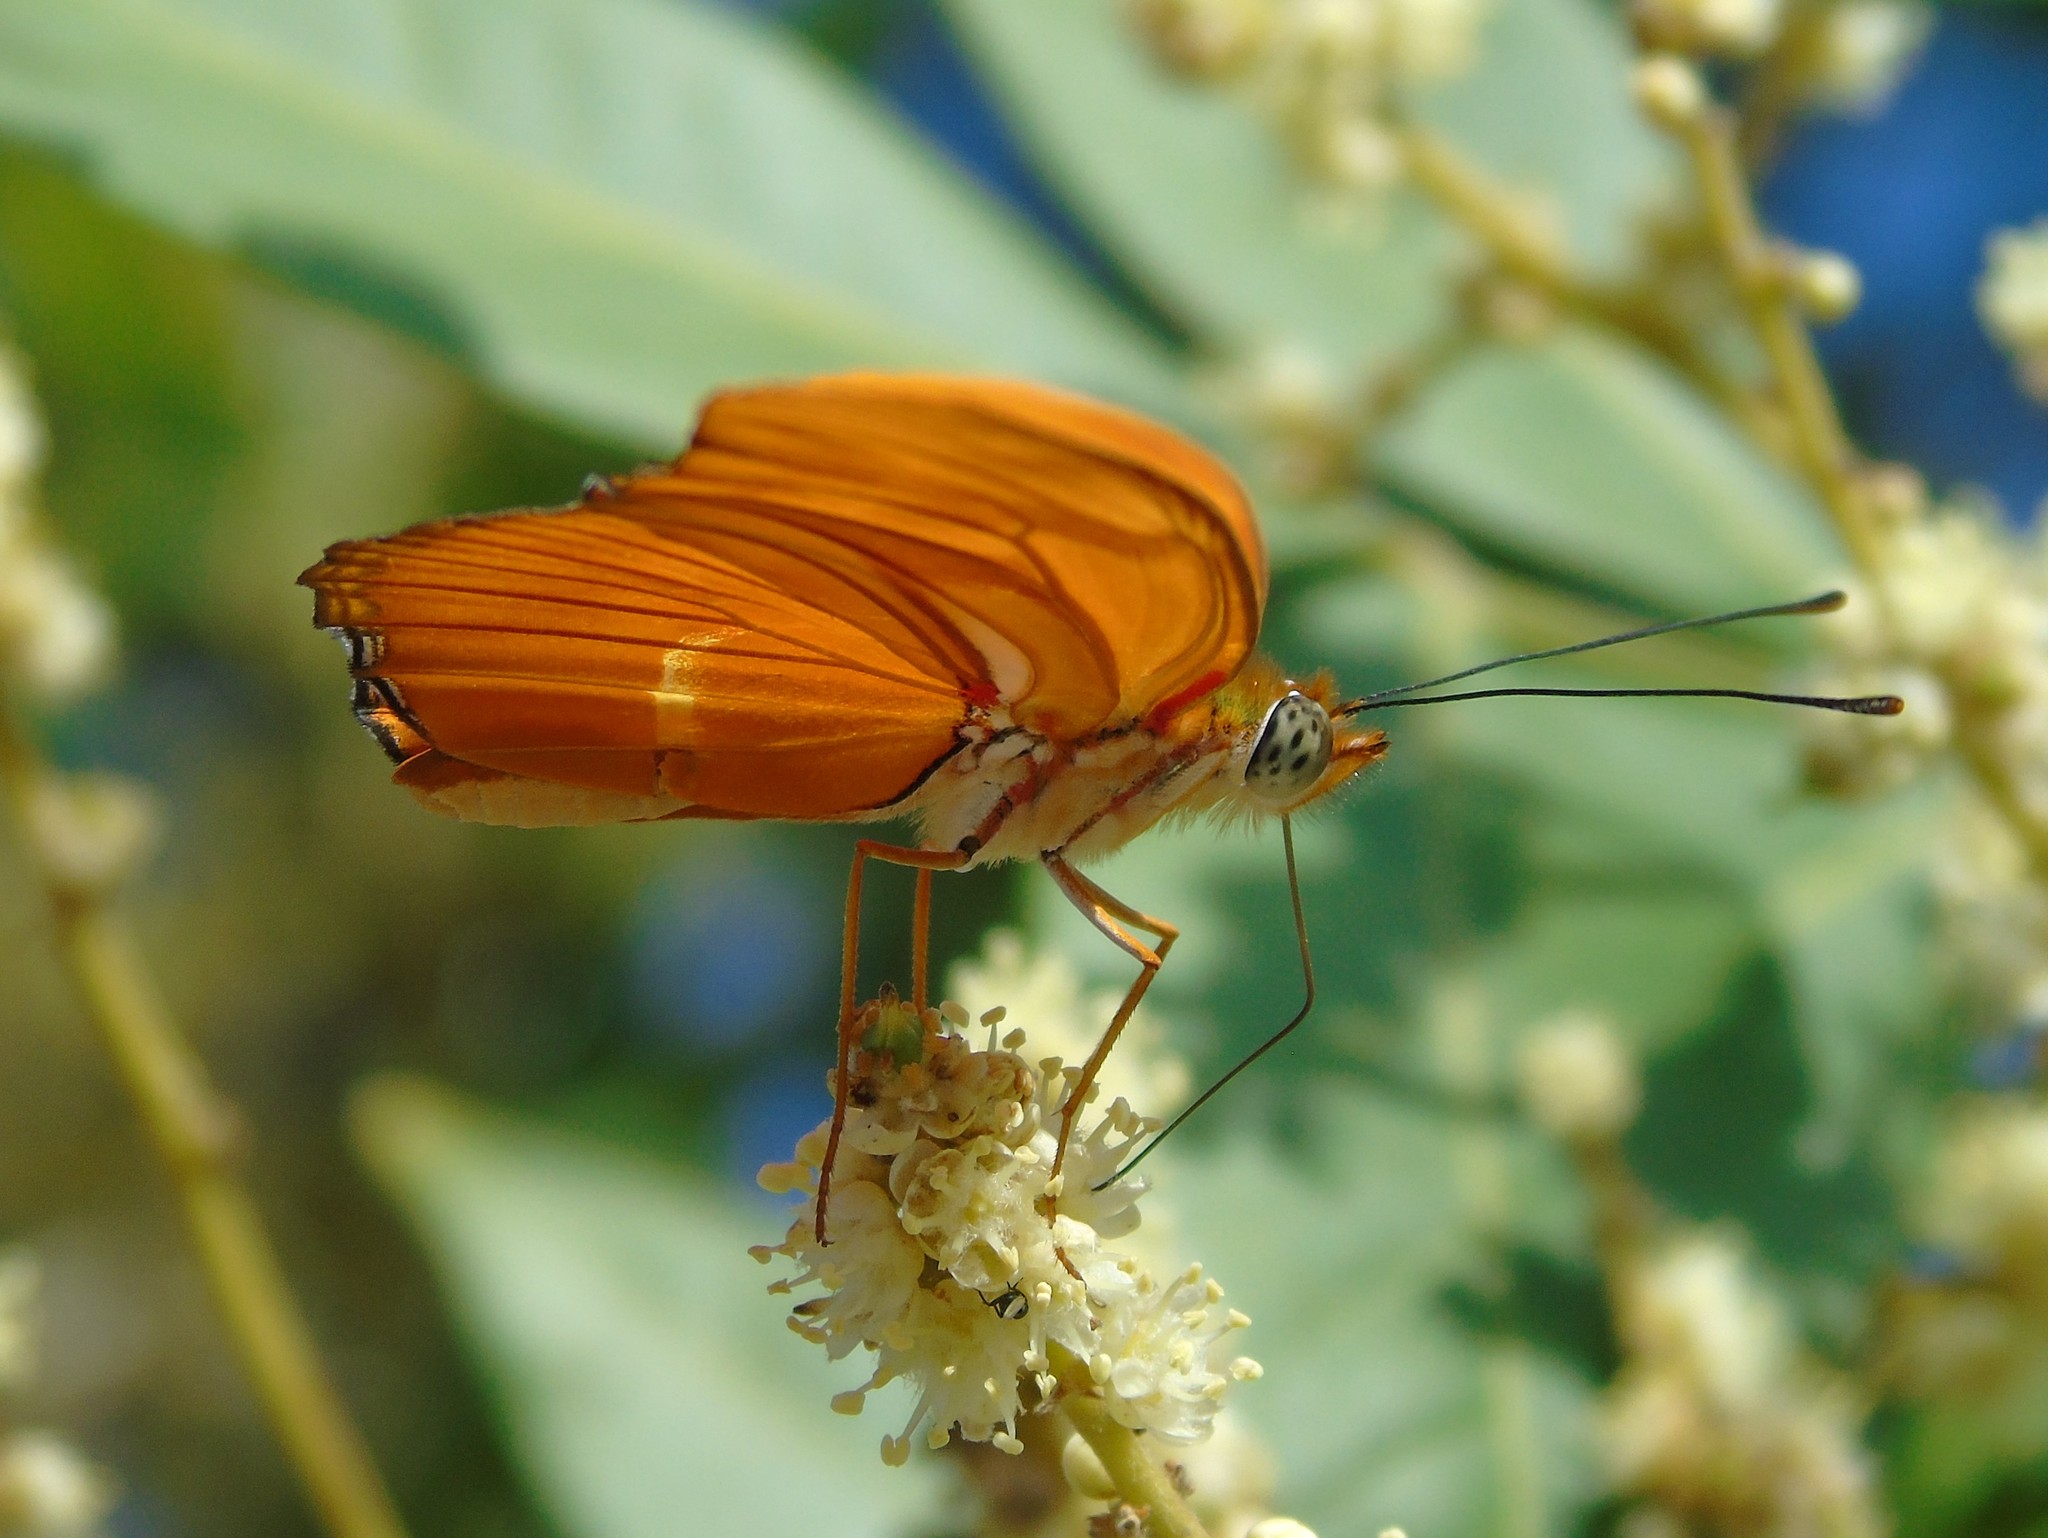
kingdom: Animalia
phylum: Arthropoda
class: Insecta
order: Lepidoptera
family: Nymphalidae
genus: Dryas
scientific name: Dryas iulia
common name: Flambeau
